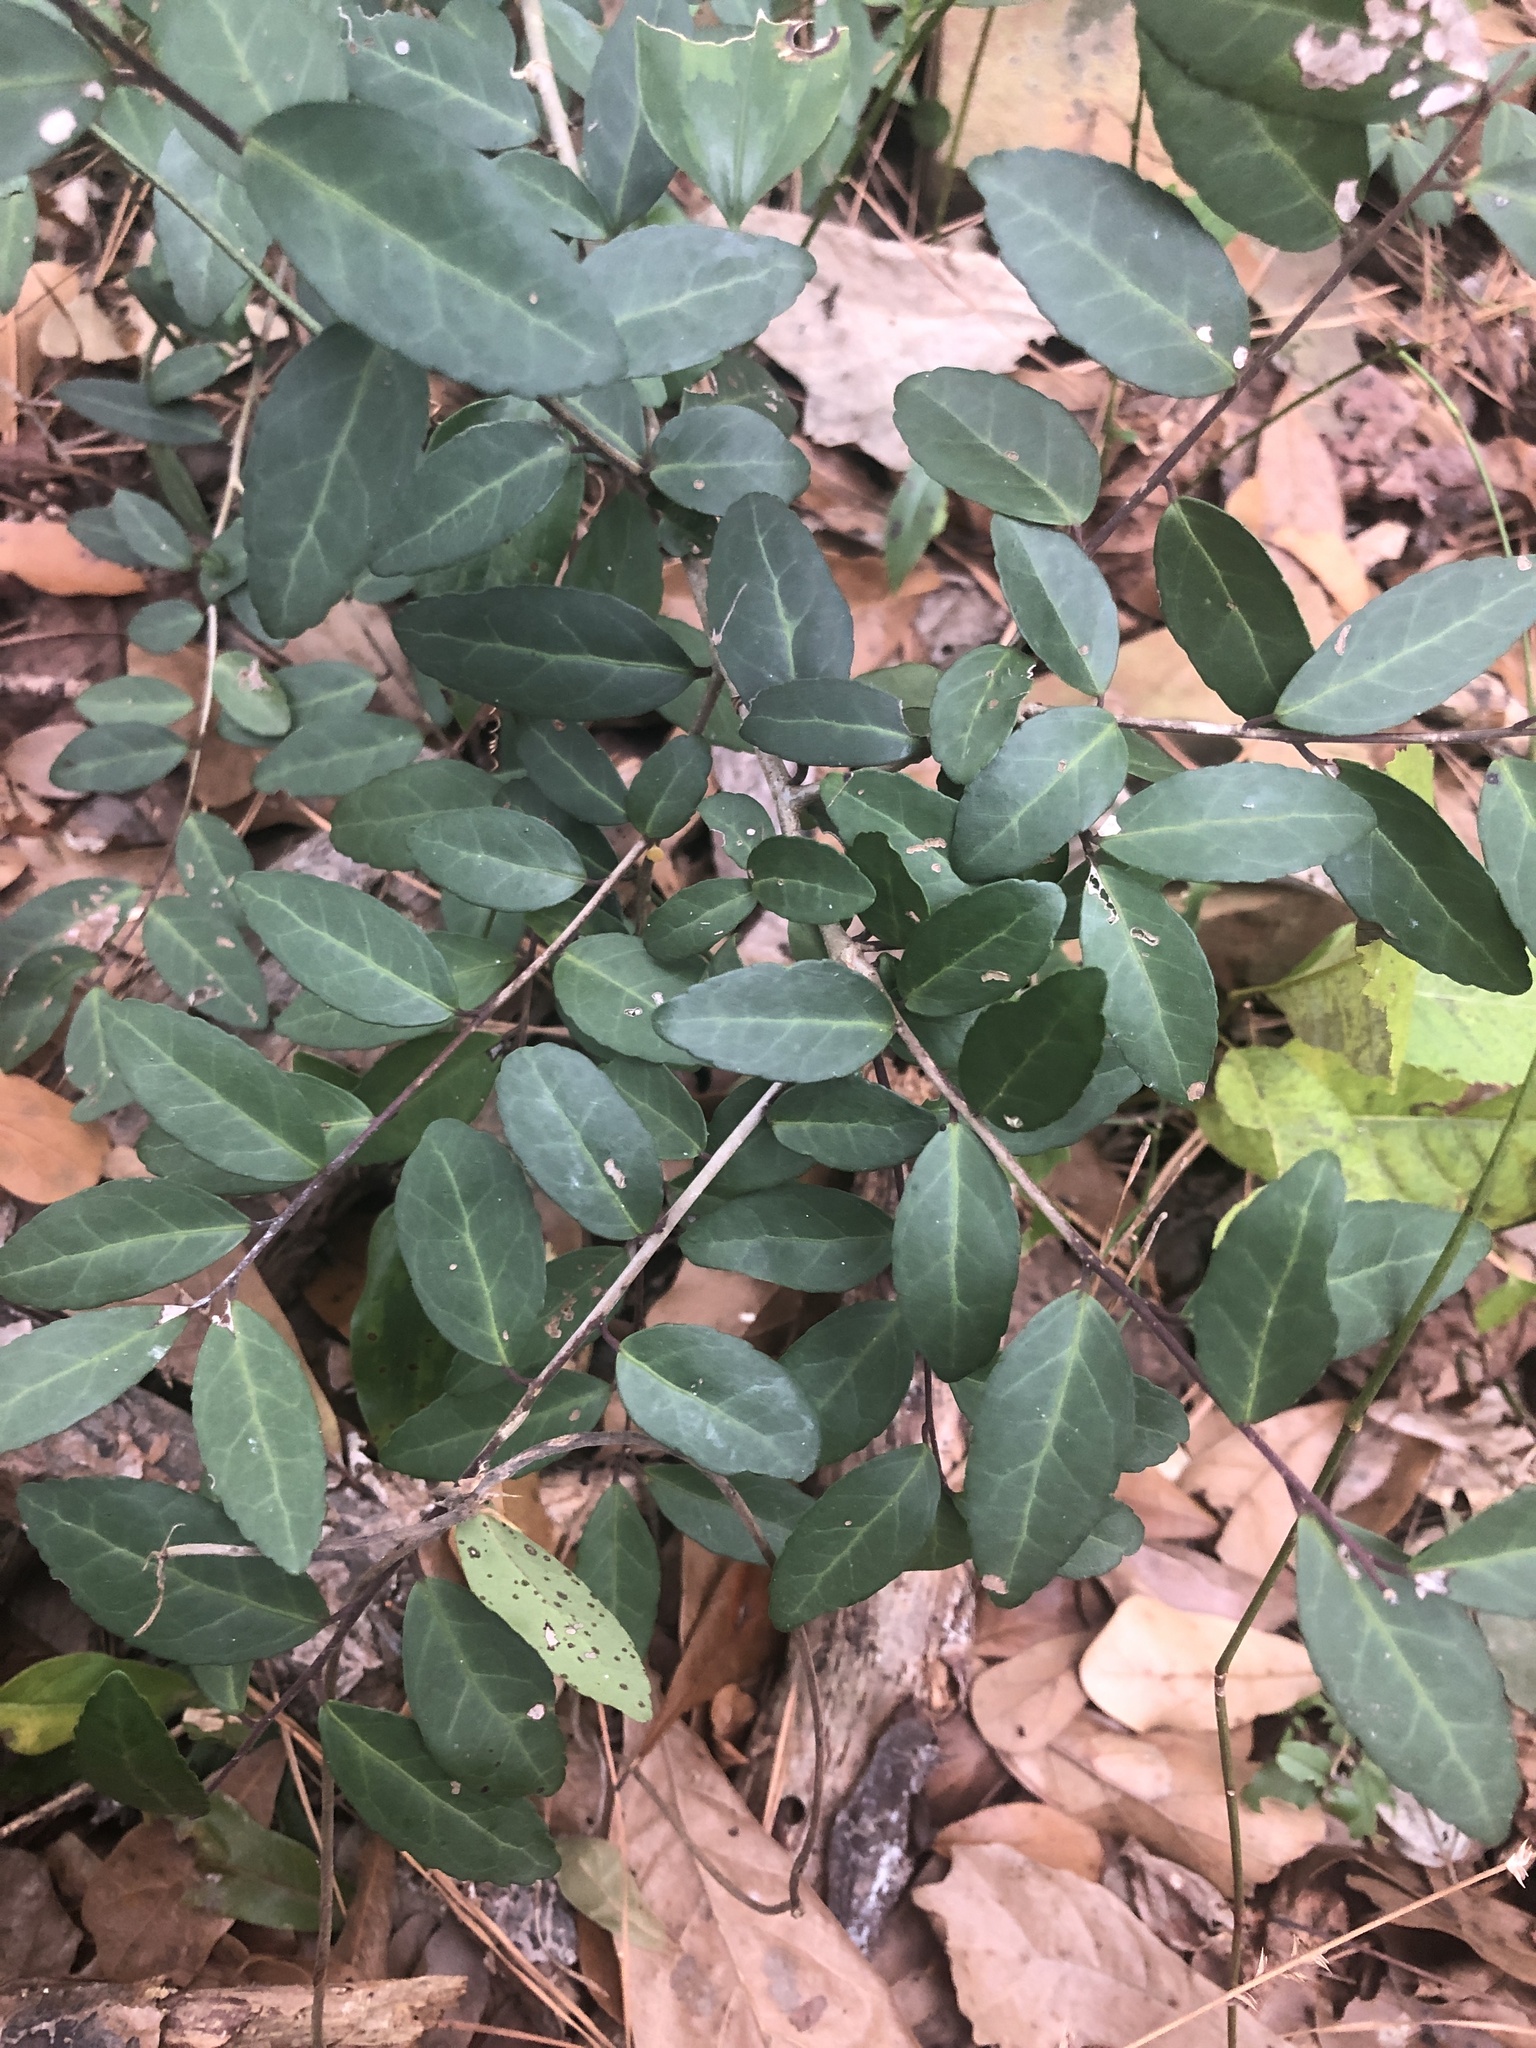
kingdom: Plantae
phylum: Tracheophyta
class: Magnoliopsida
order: Aquifoliales
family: Aquifoliaceae
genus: Ilex
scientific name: Ilex vomitoria
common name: Yaupon holly
